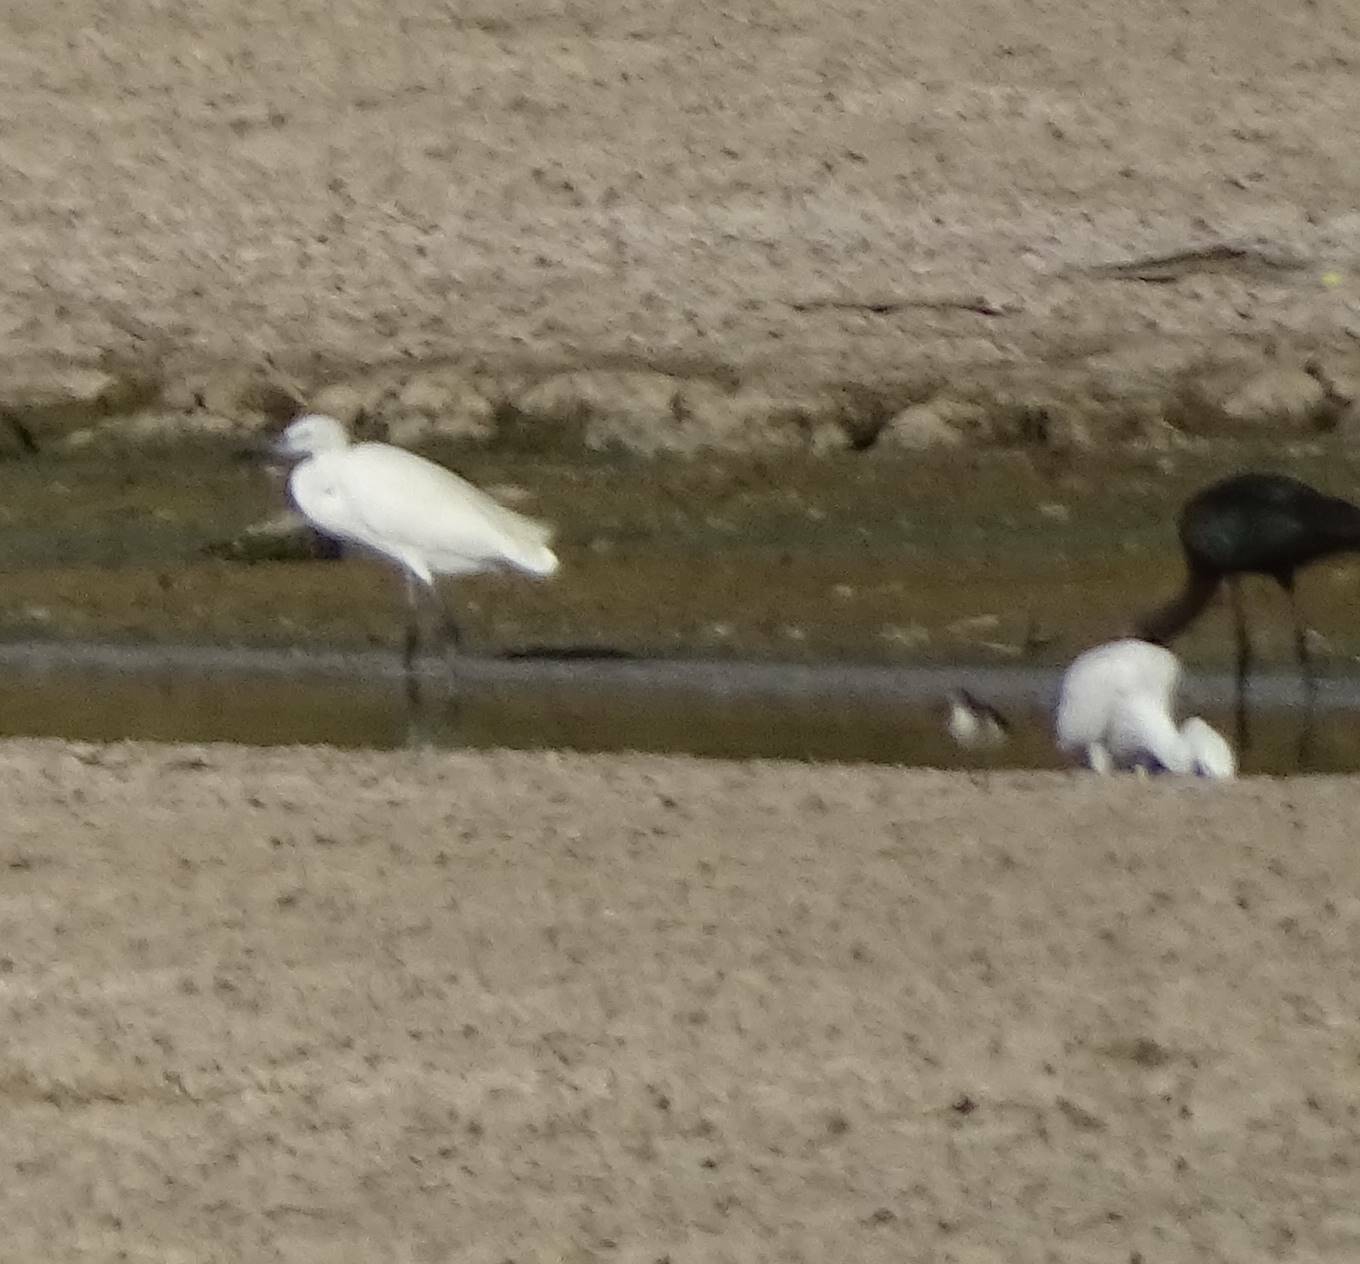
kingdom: Animalia
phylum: Chordata
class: Aves
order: Pelecaniformes
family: Ardeidae
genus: Egretta
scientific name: Egretta garzetta
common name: Little egret
